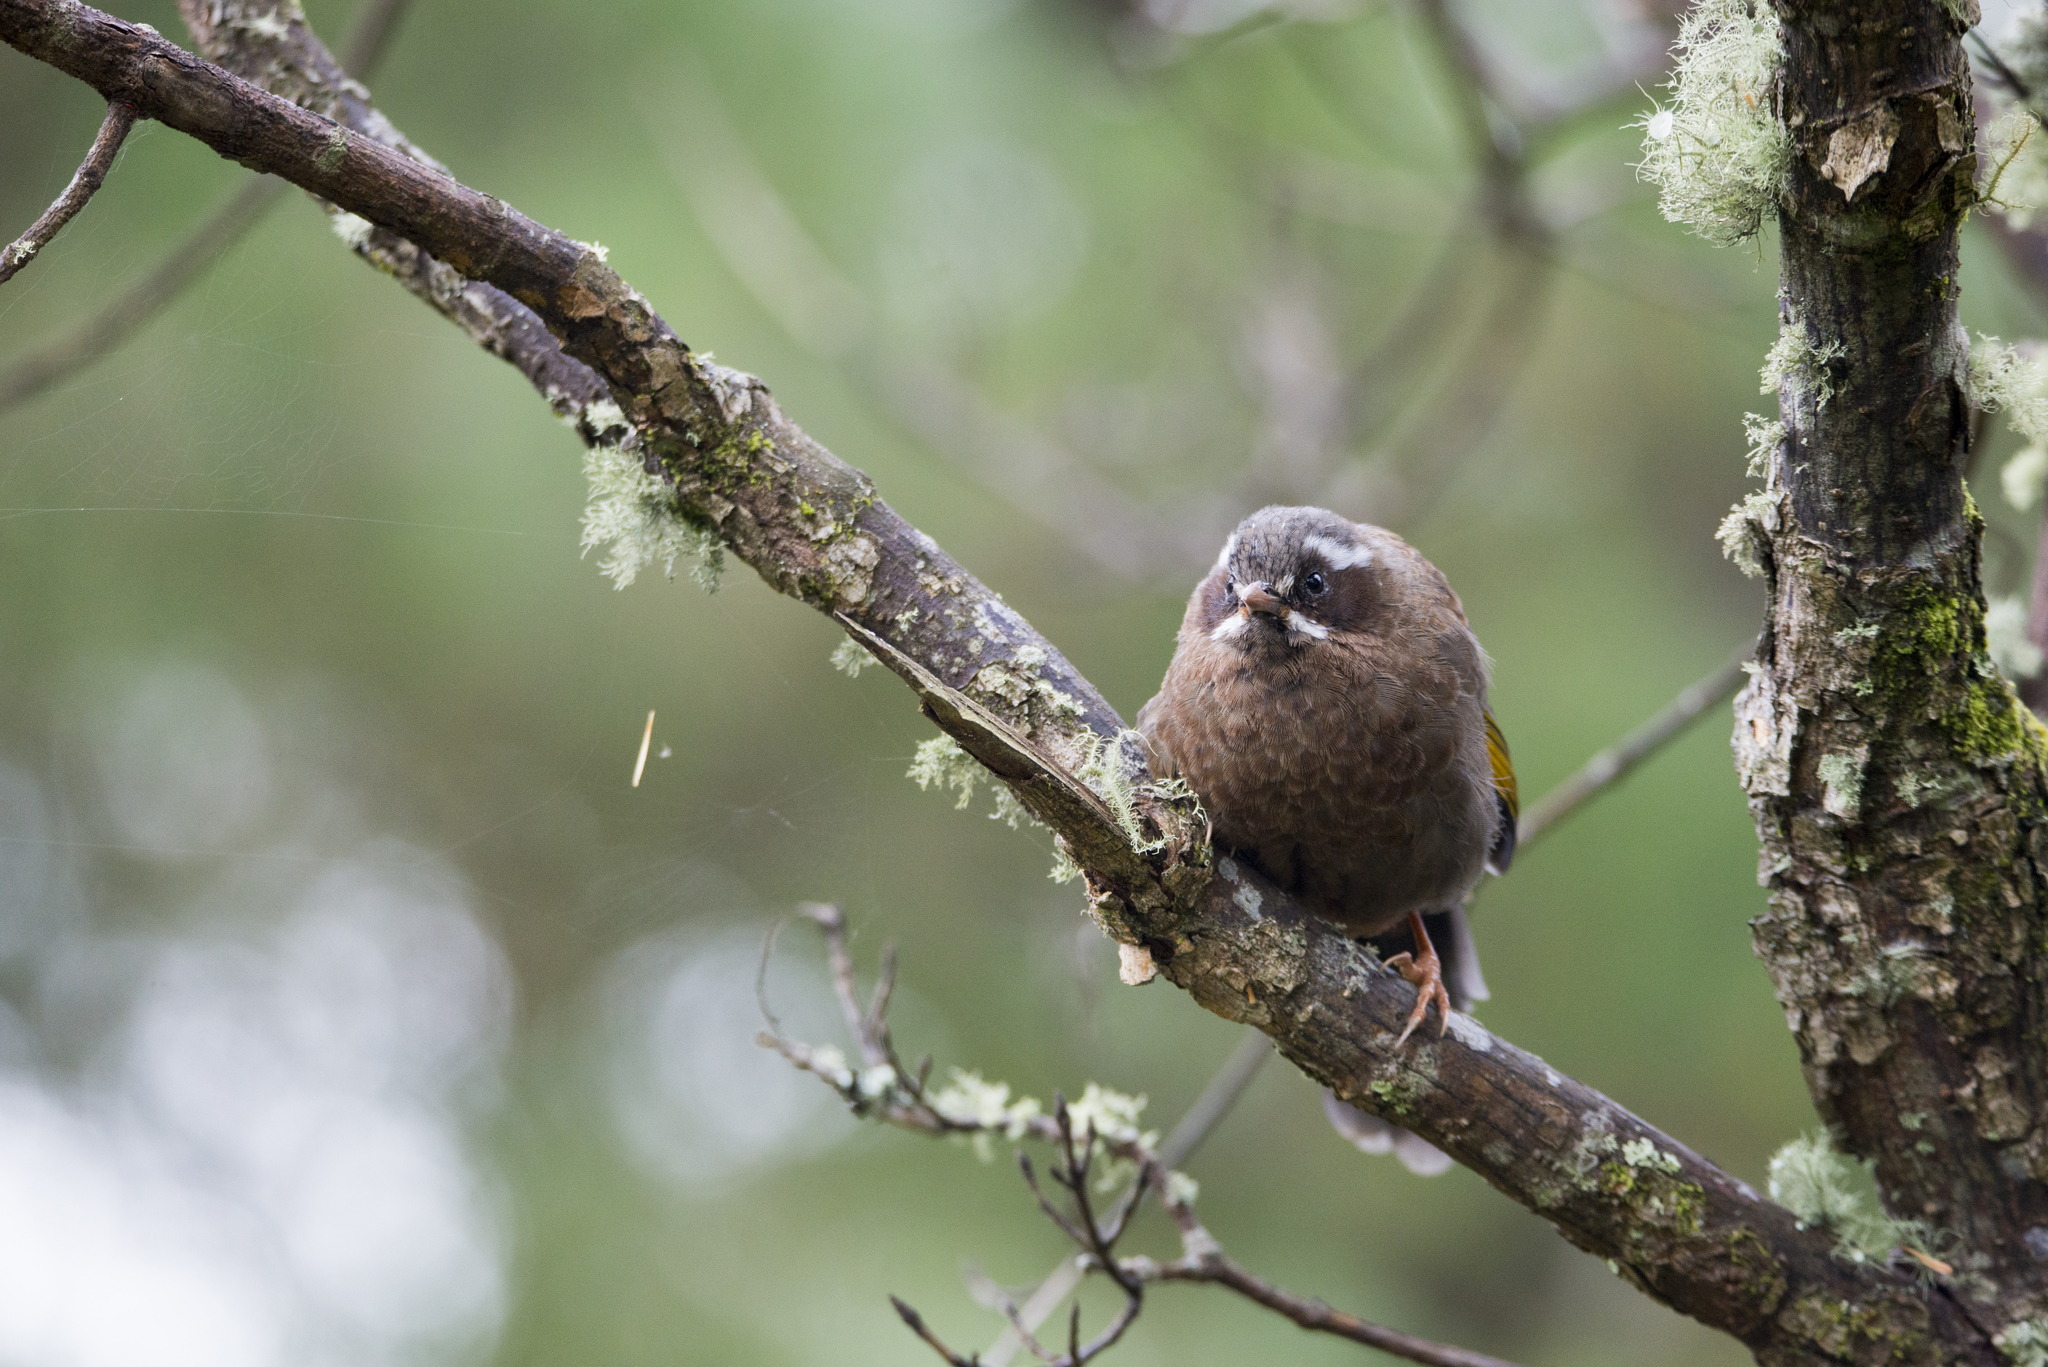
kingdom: Animalia
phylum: Chordata
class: Aves
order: Passeriformes
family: Leiothrichidae
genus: Trochalopteron
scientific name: Trochalopteron morrisonianum
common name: White-whiskered laughingthrush
